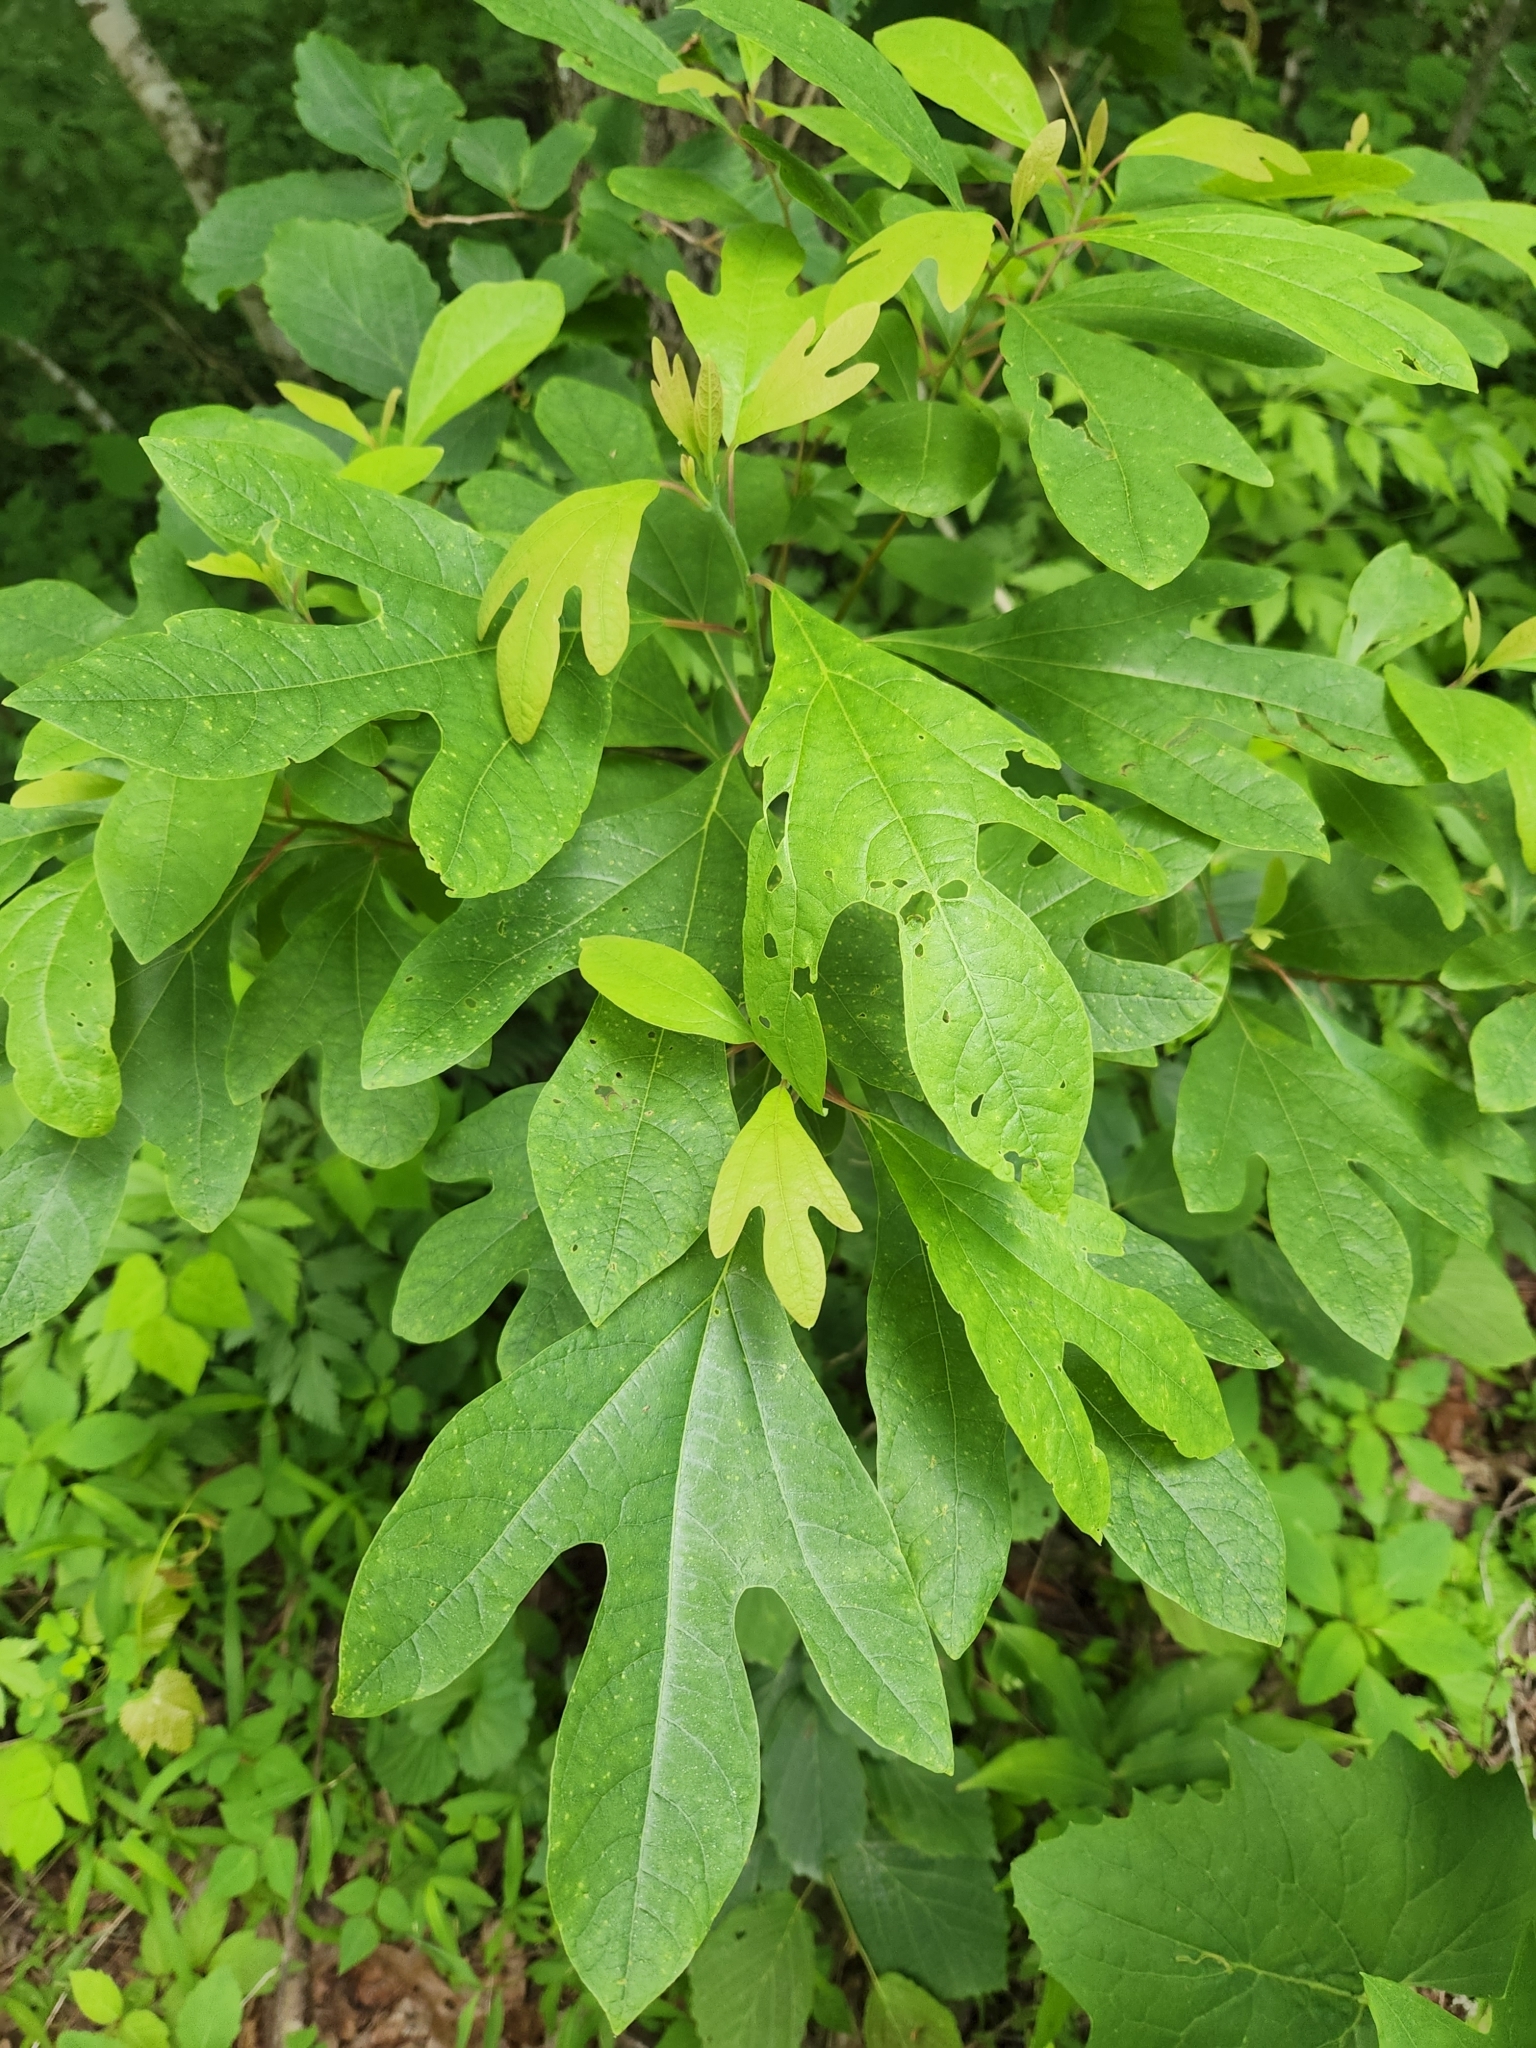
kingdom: Plantae
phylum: Tracheophyta
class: Magnoliopsida
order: Laurales
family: Lauraceae
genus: Sassafras
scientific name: Sassafras albidum
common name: Sassafras
